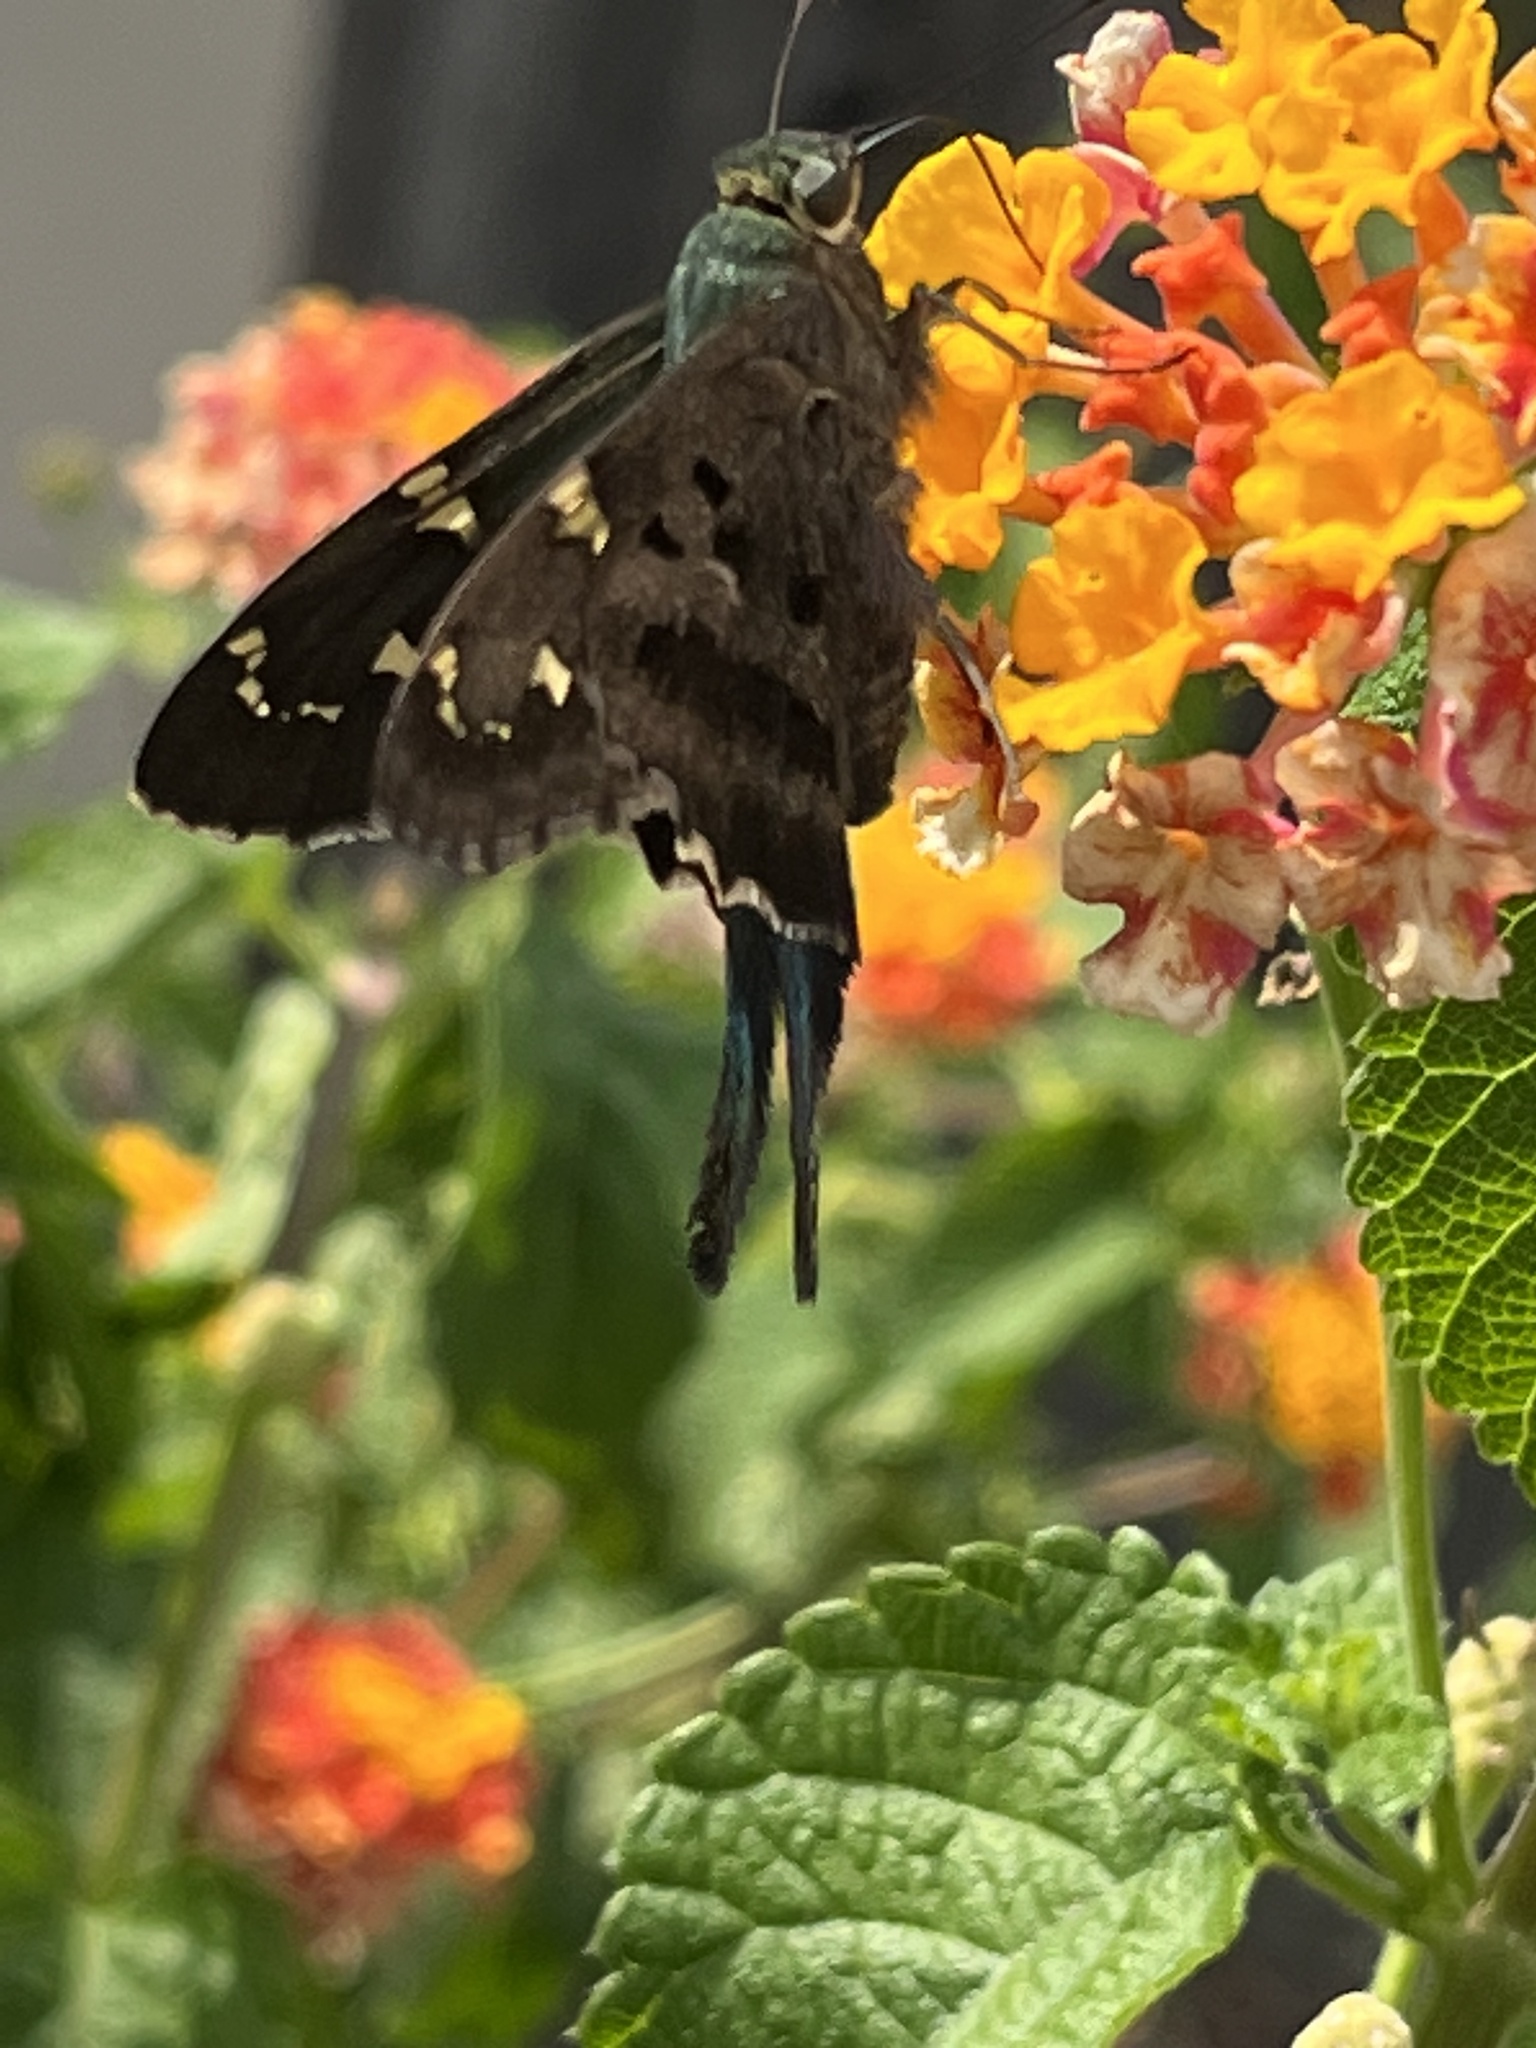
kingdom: Animalia
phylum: Arthropoda
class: Insecta
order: Lepidoptera
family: Hesperiidae
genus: Urbanus
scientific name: Urbanus proteus
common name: Long-tailed skipper
